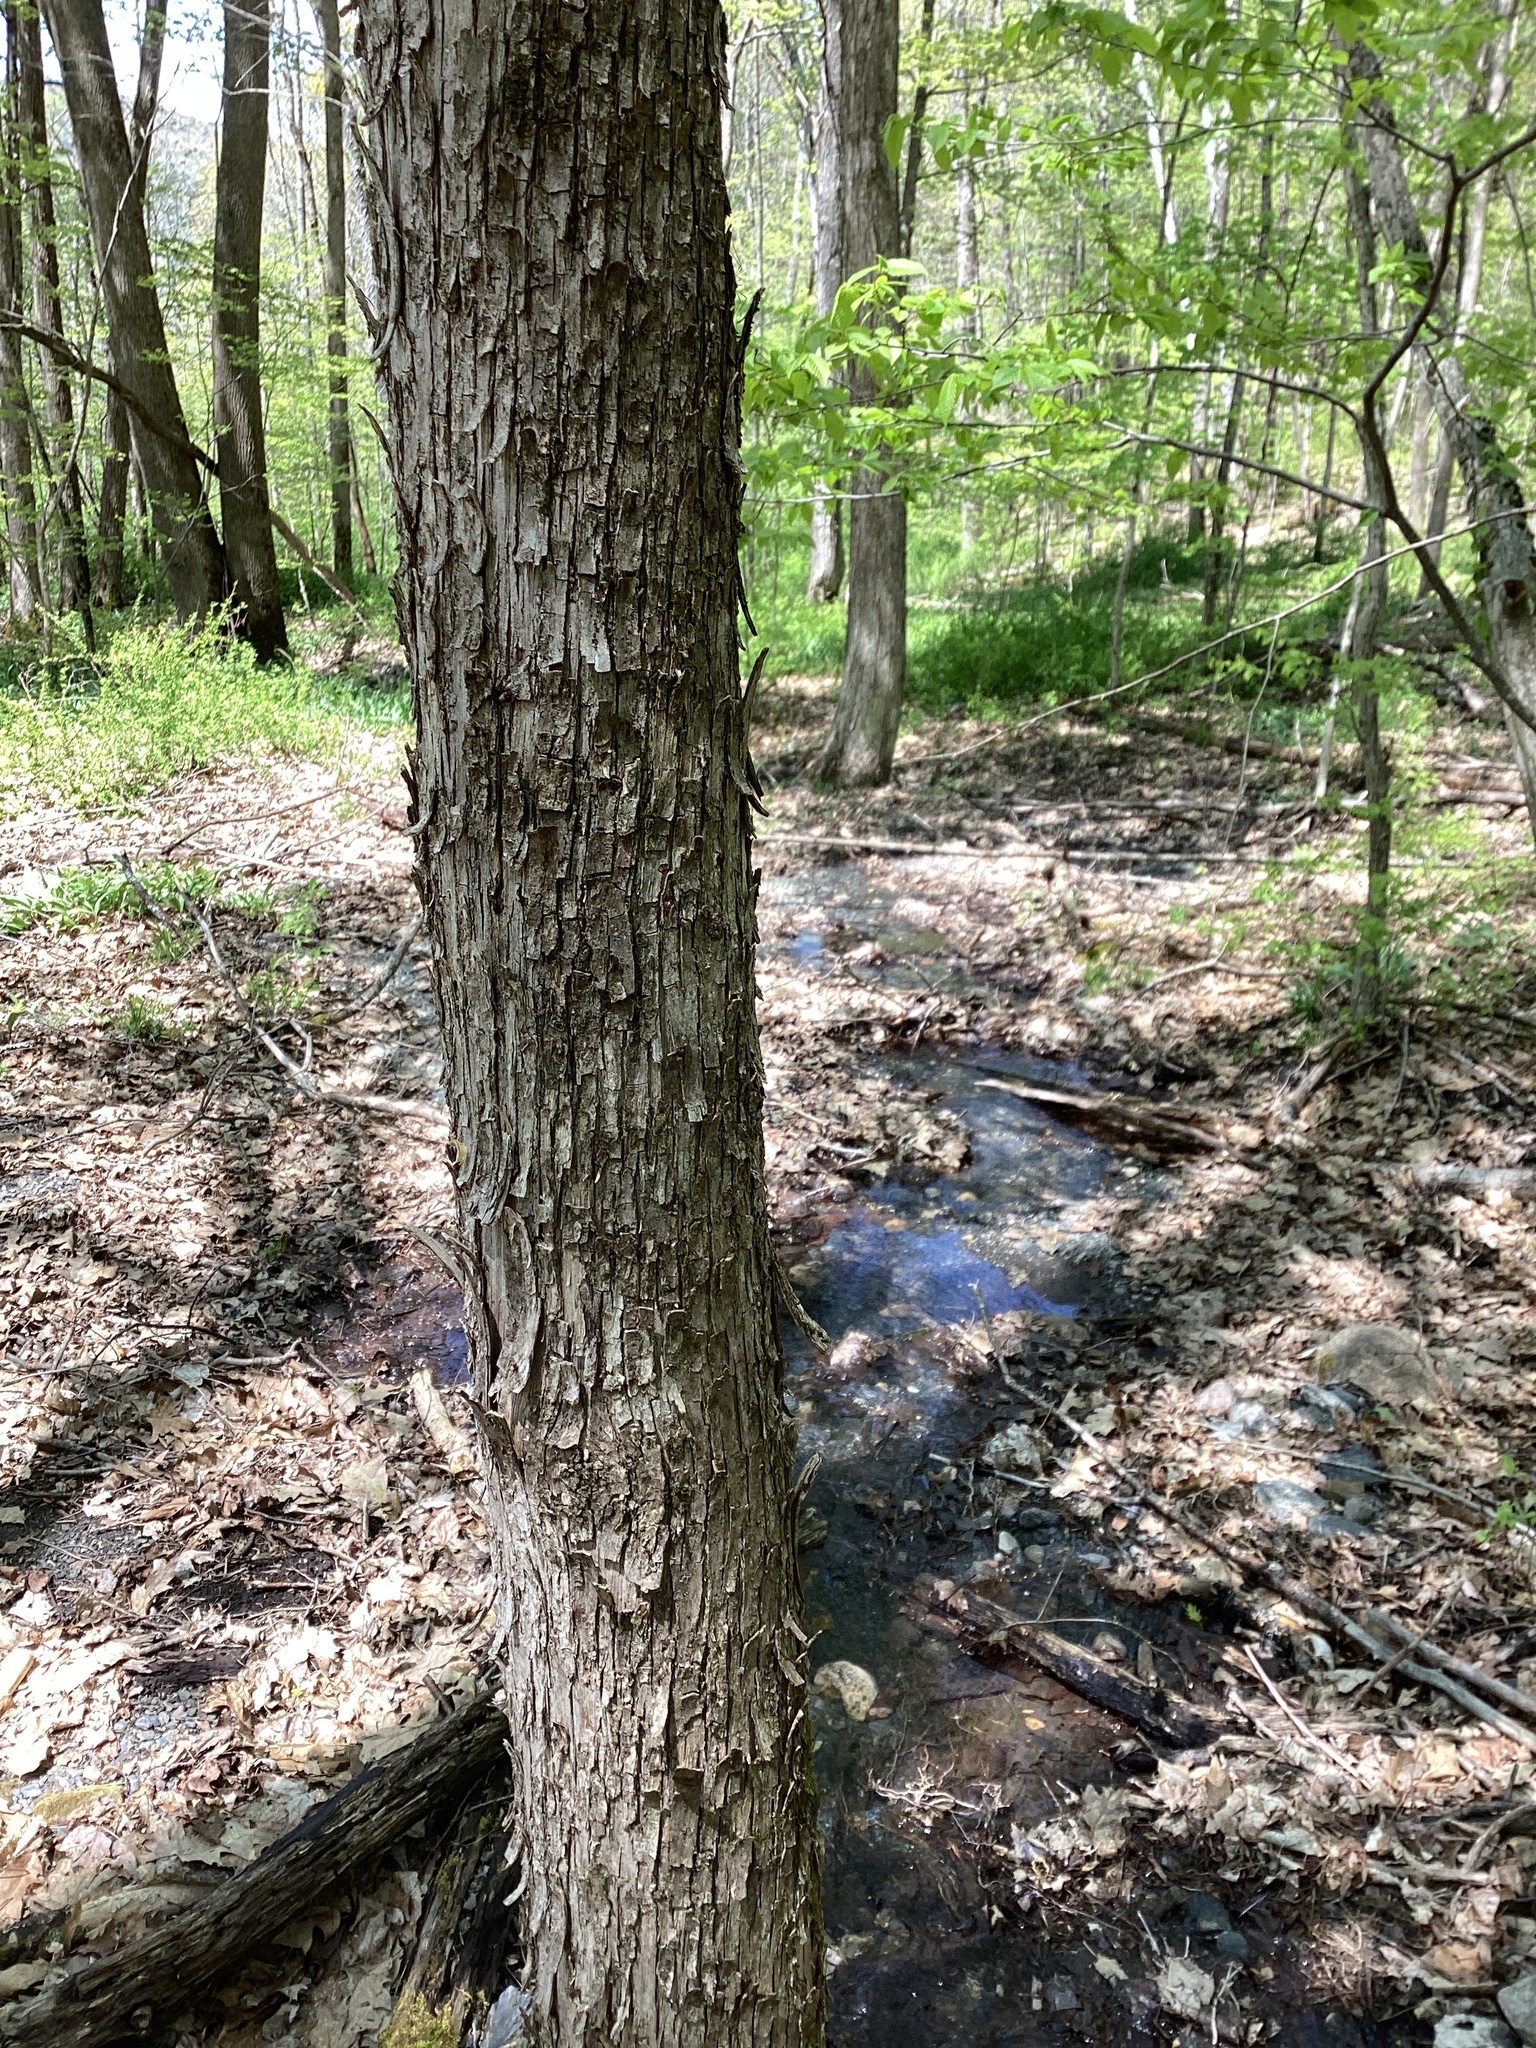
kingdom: Plantae
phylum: Tracheophyta
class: Magnoliopsida
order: Fagales
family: Betulaceae
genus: Ostrya
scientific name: Ostrya virginiana
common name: Ironwood
